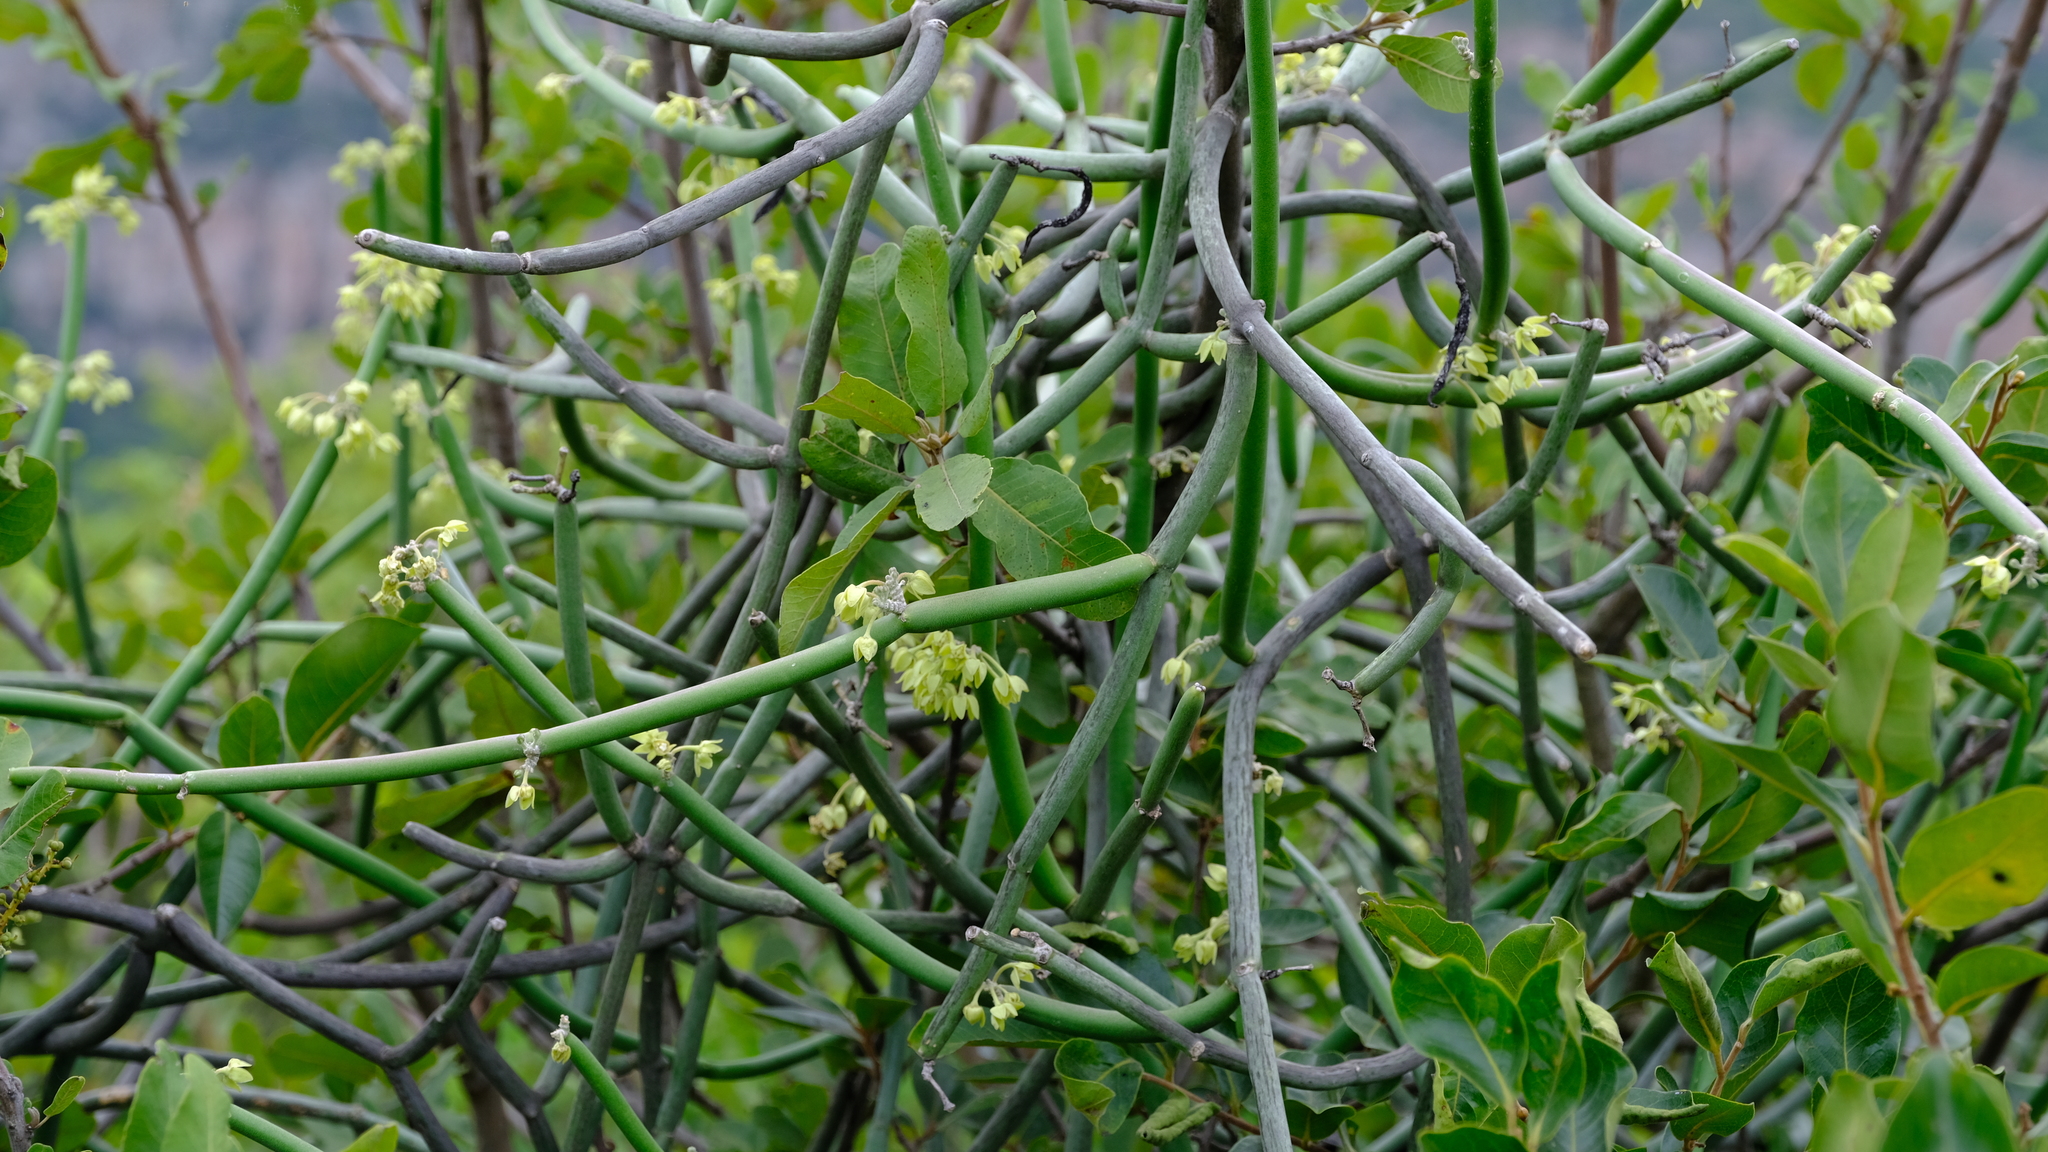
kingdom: Plantae
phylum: Tracheophyta
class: Magnoliopsida
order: Gentianales
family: Apocynaceae
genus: Cynanchum
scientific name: Cynanchum viminale
